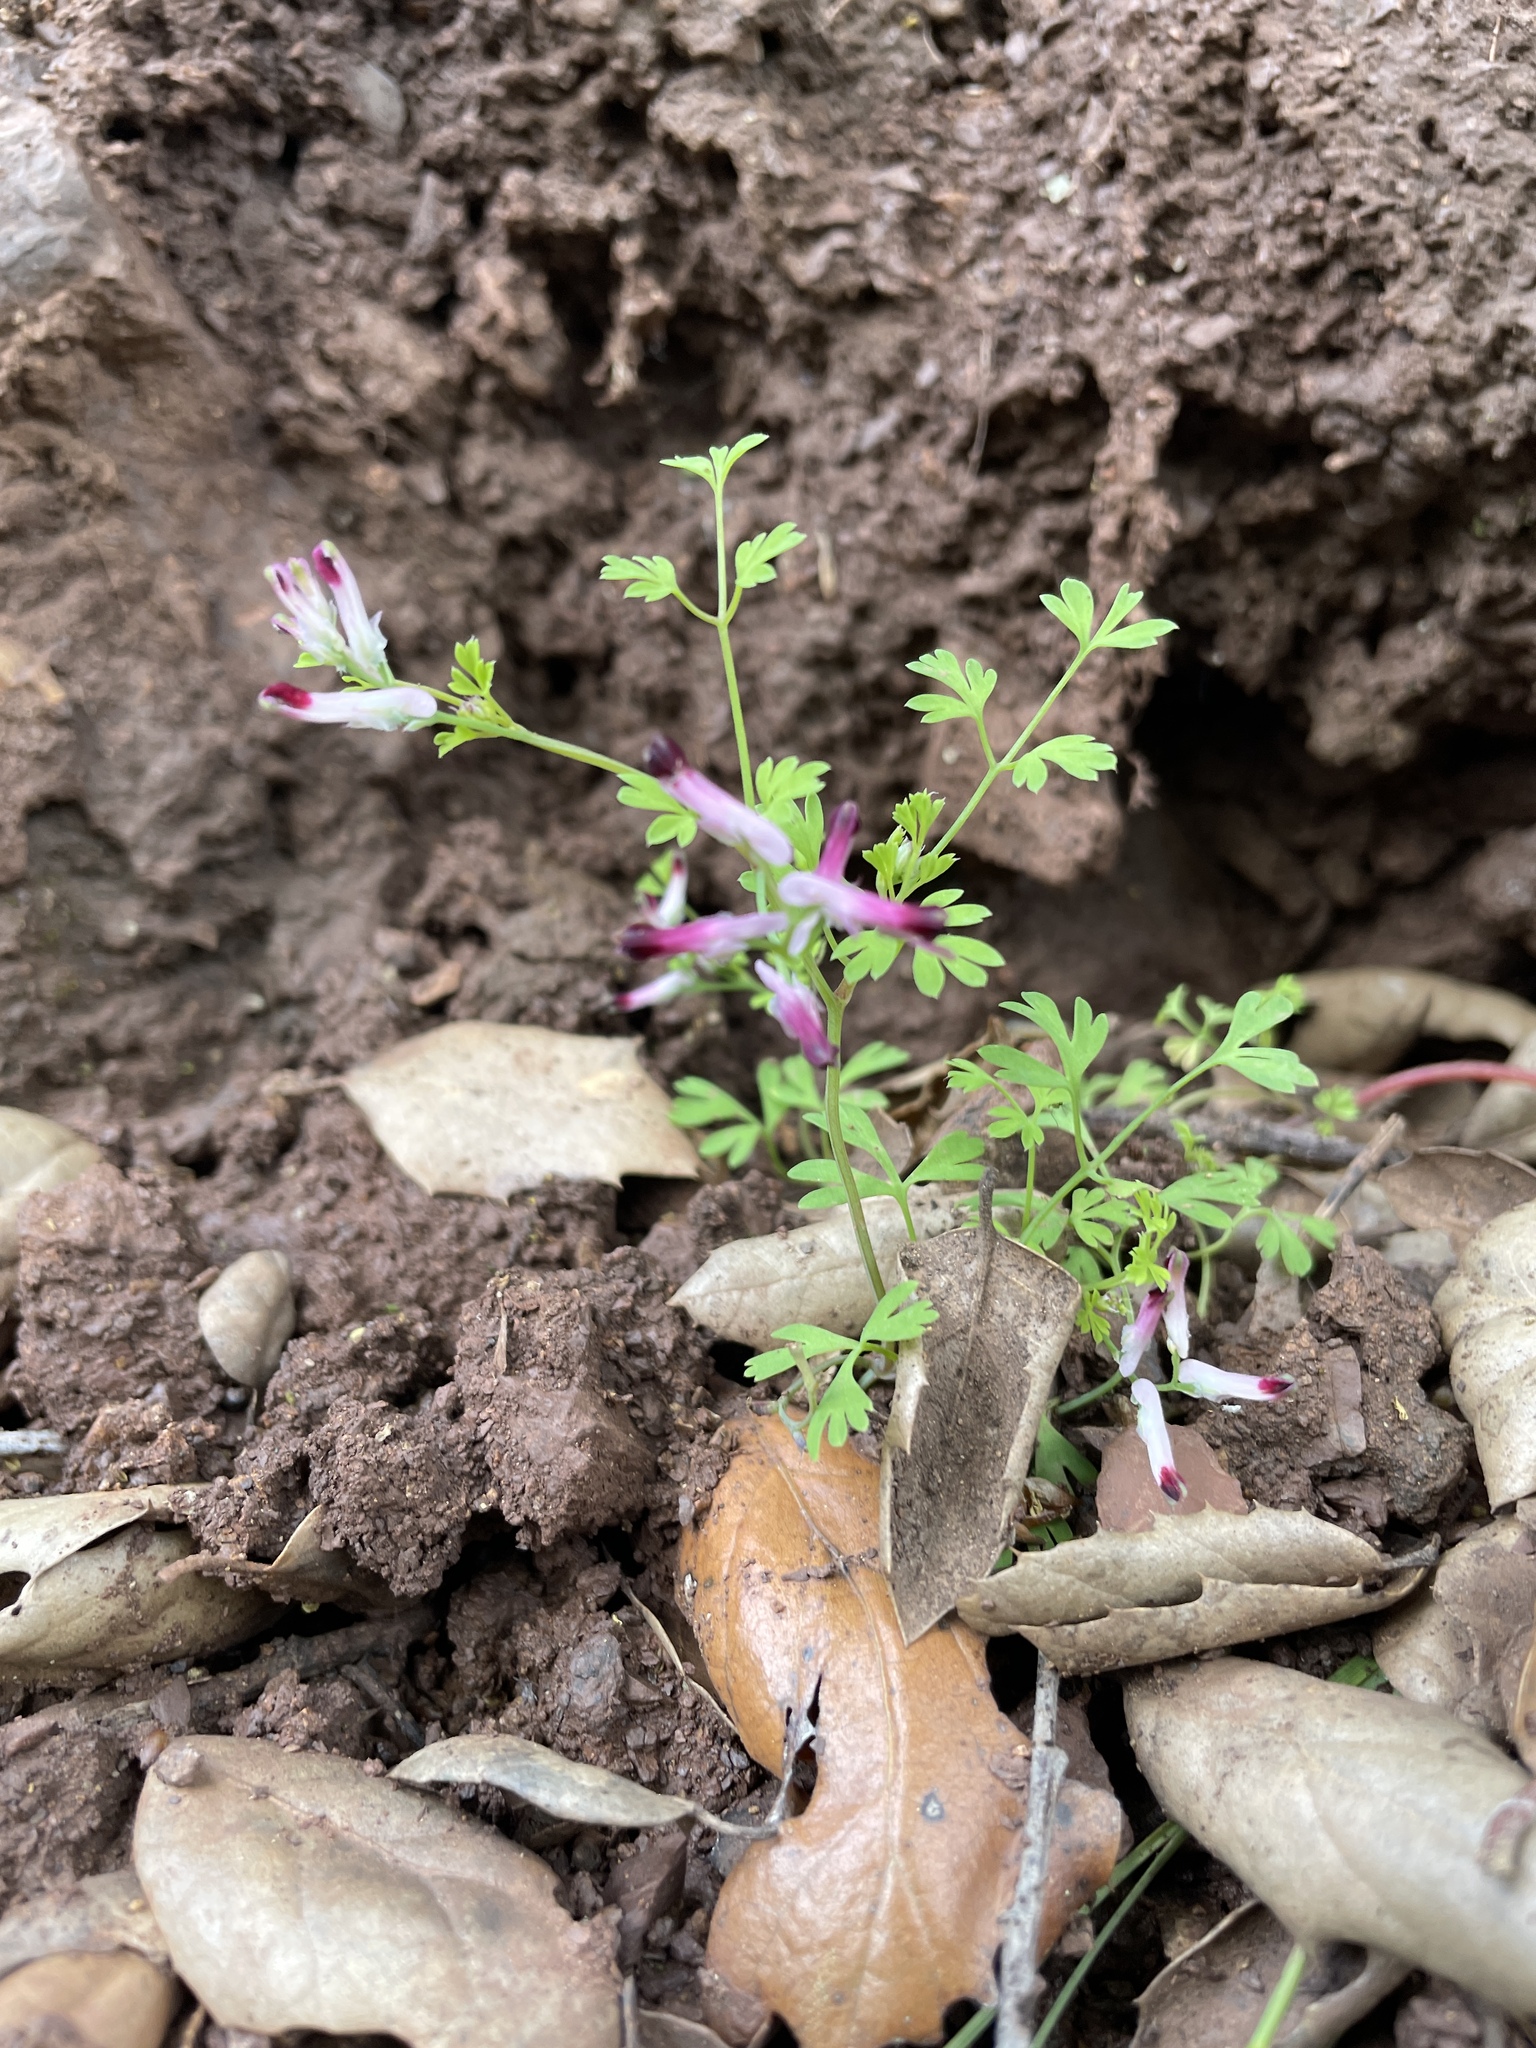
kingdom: Plantae
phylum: Tracheophyta
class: Magnoliopsida
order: Ranunculales
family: Papaveraceae
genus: Fumaria
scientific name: Fumaria muralis
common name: Common ramping-fumitory
